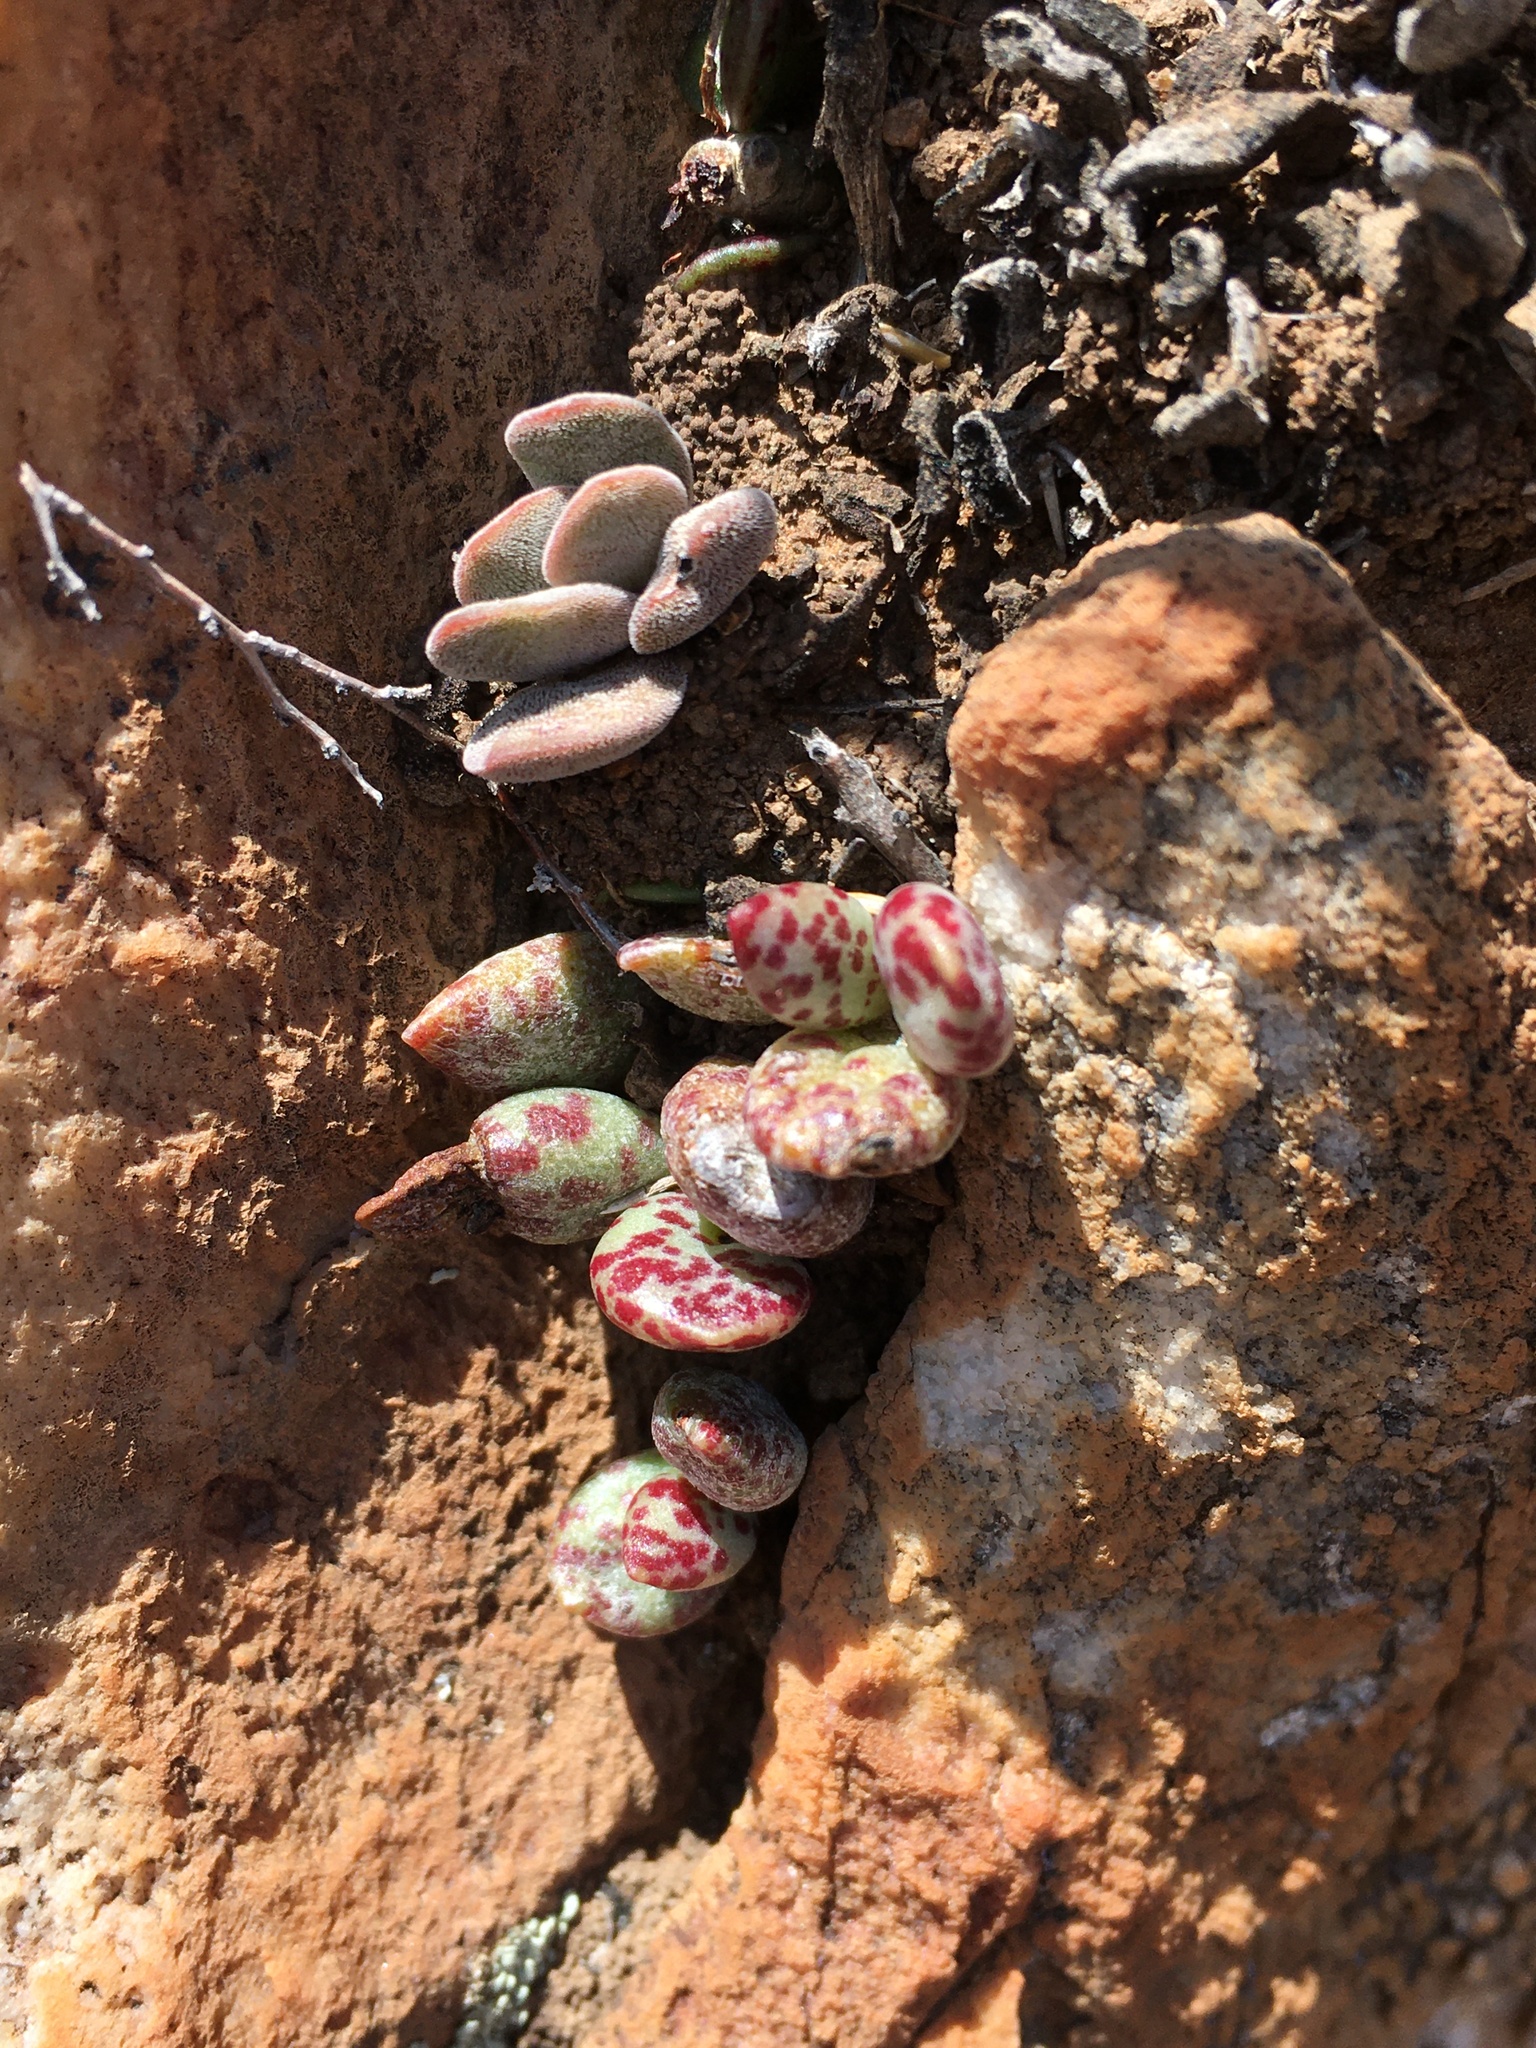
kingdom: Plantae
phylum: Tracheophyta
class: Magnoliopsida
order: Saxifragales
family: Crassulaceae
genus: Adromischus
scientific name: Adromischus filicaulis
